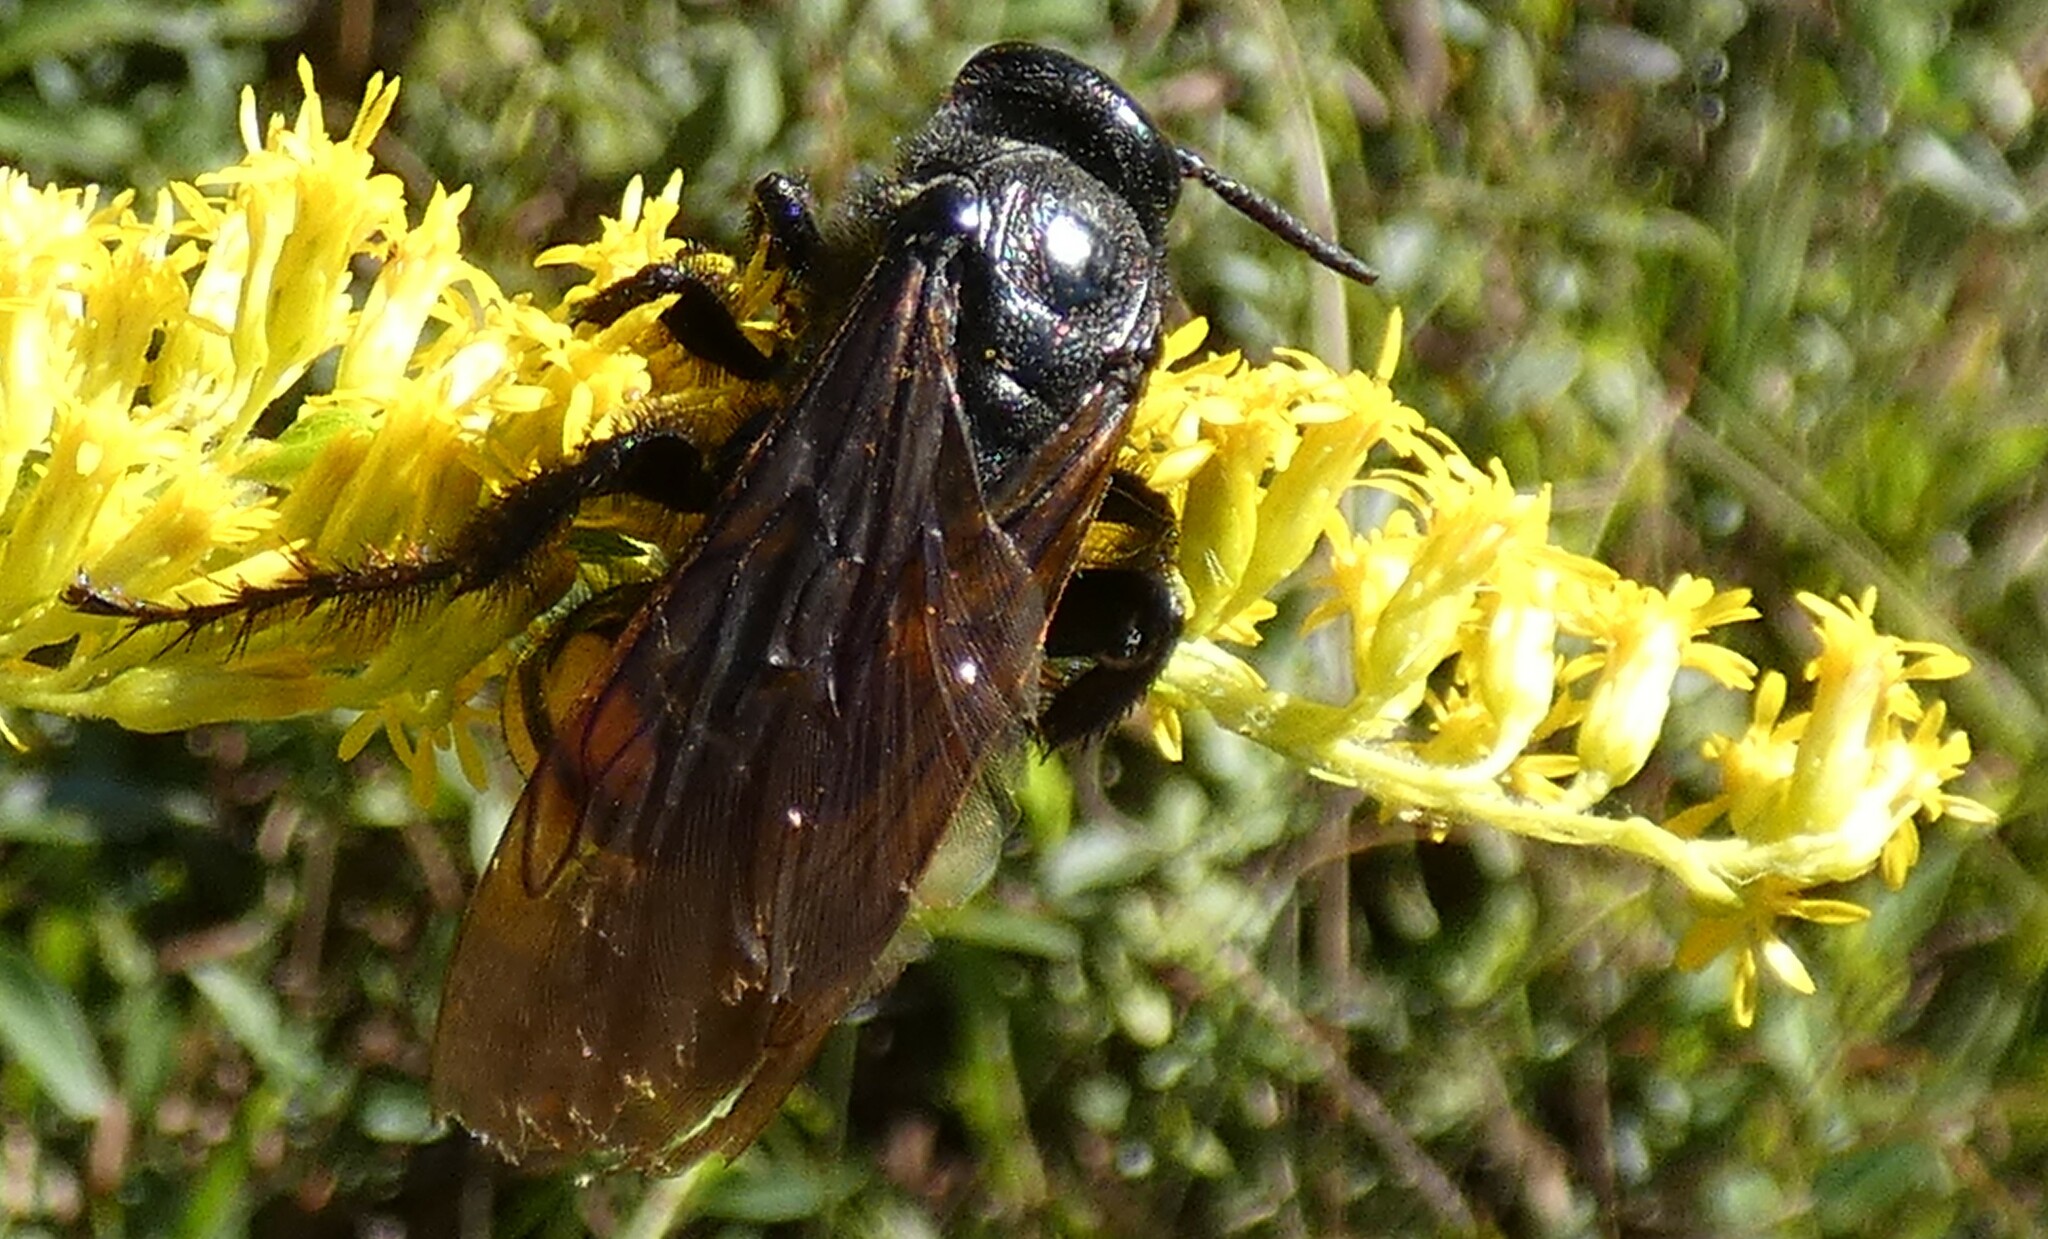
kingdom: Animalia
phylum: Arthropoda
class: Insecta
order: Hymenoptera
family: Scoliidae
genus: Pygodasis
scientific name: Pygodasis
